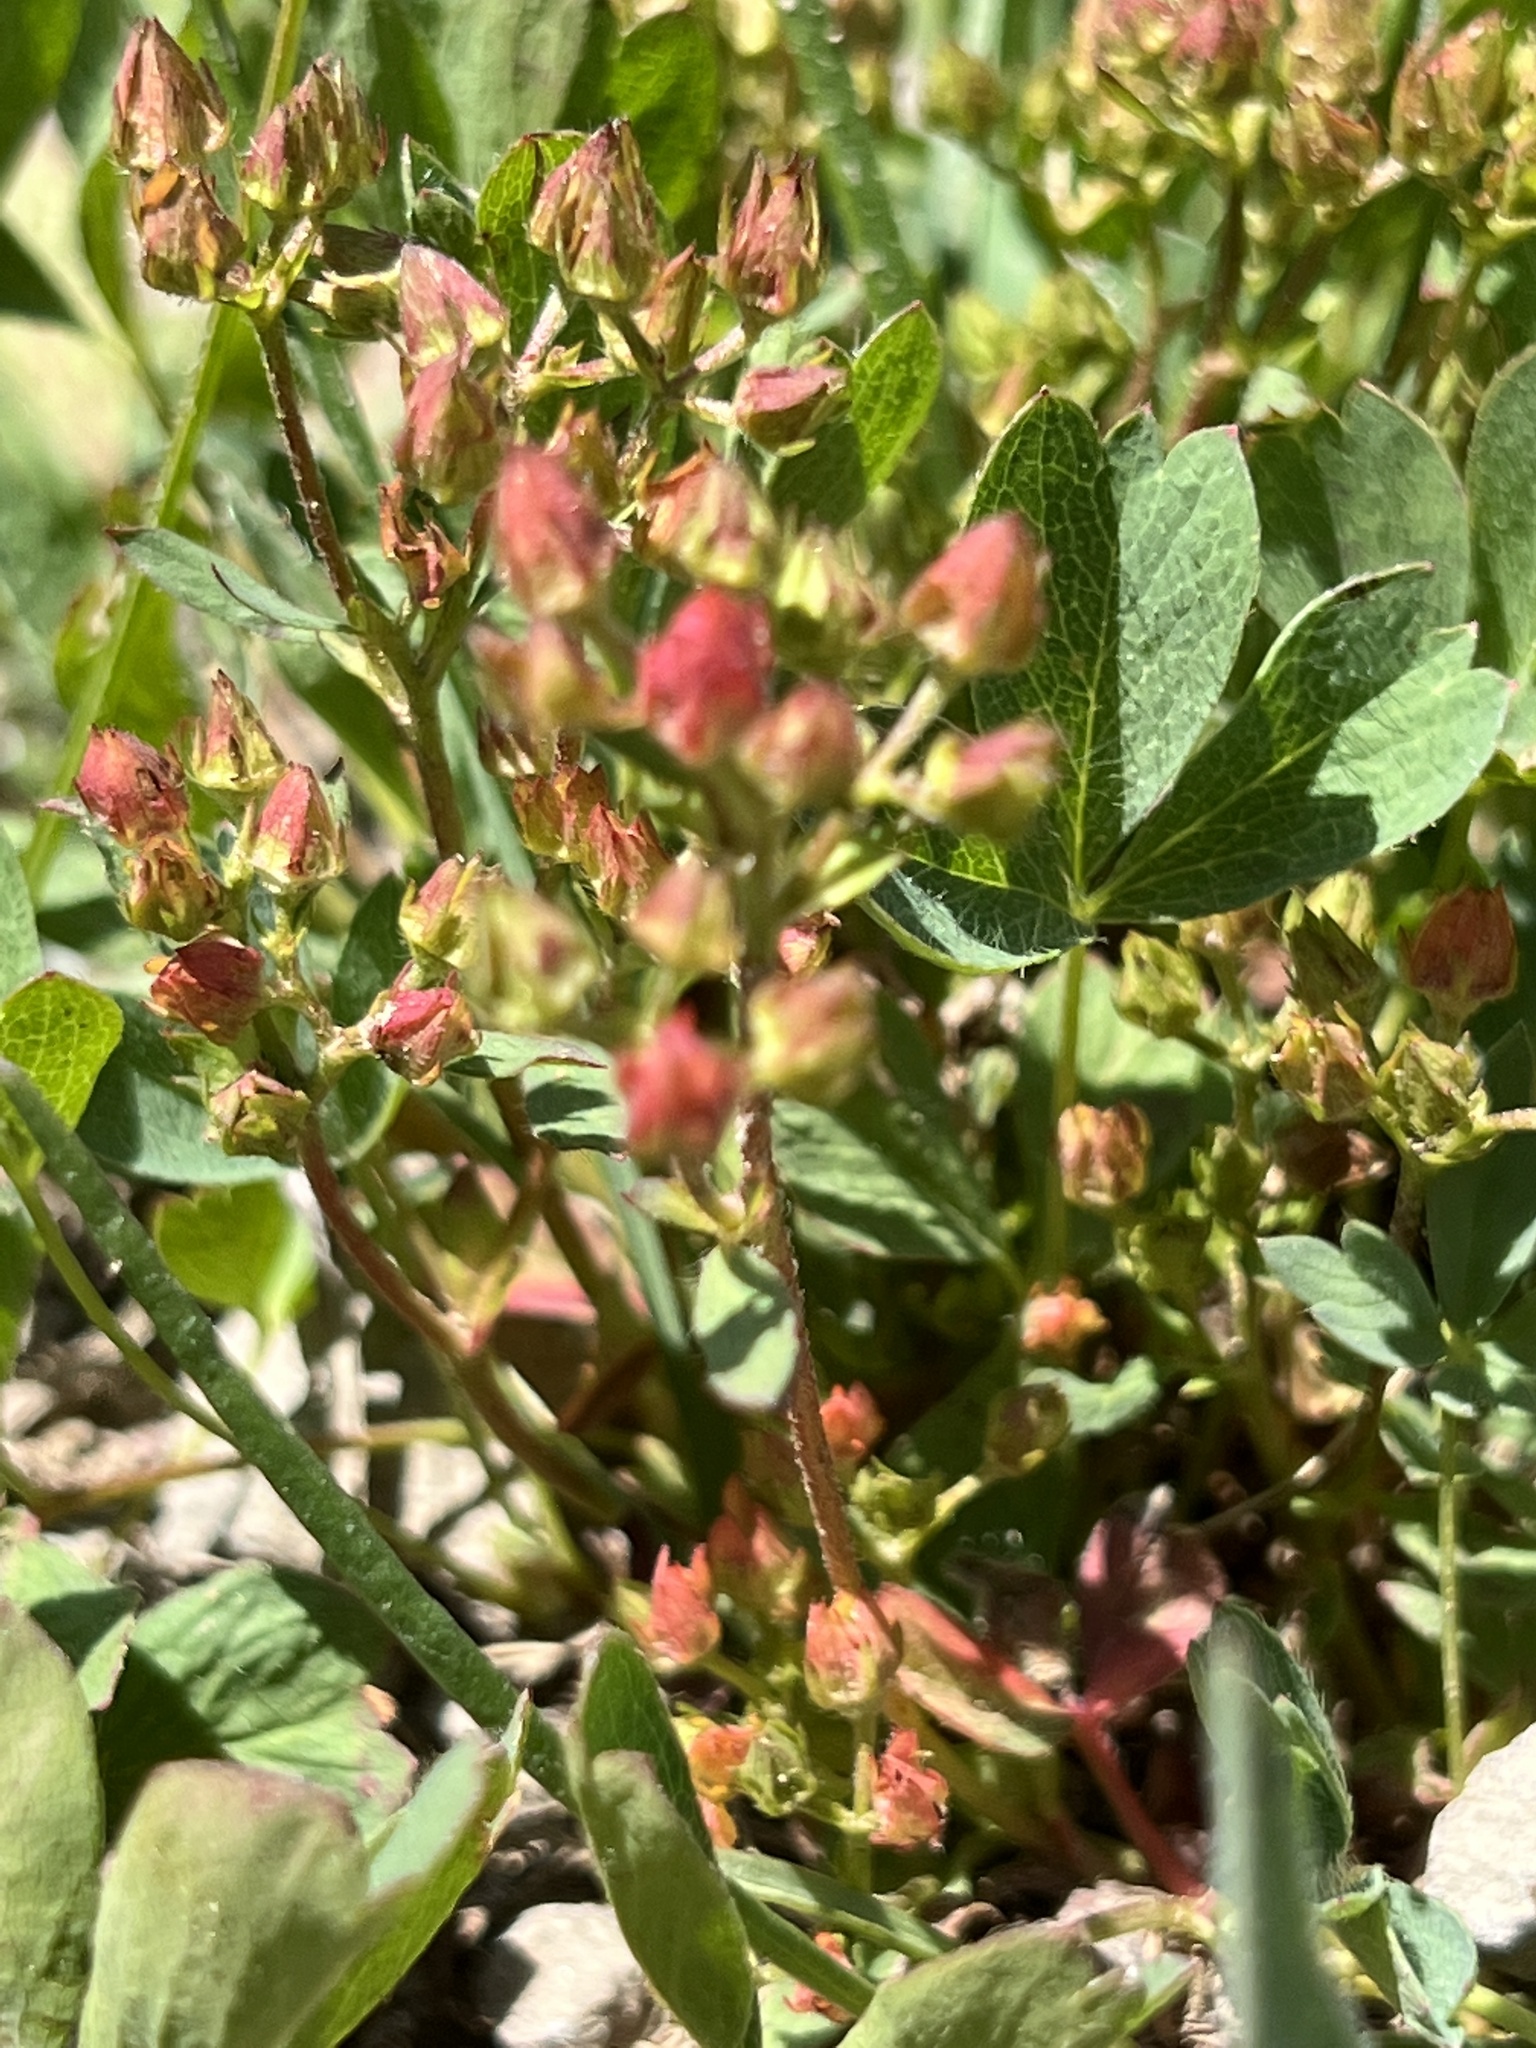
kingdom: Plantae
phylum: Tracheophyta
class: Magnoliopsida
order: Rosales
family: Rosaceae
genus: Sibbaldia
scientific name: Sibbaldia procumbens
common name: Creeping sibbaldia
